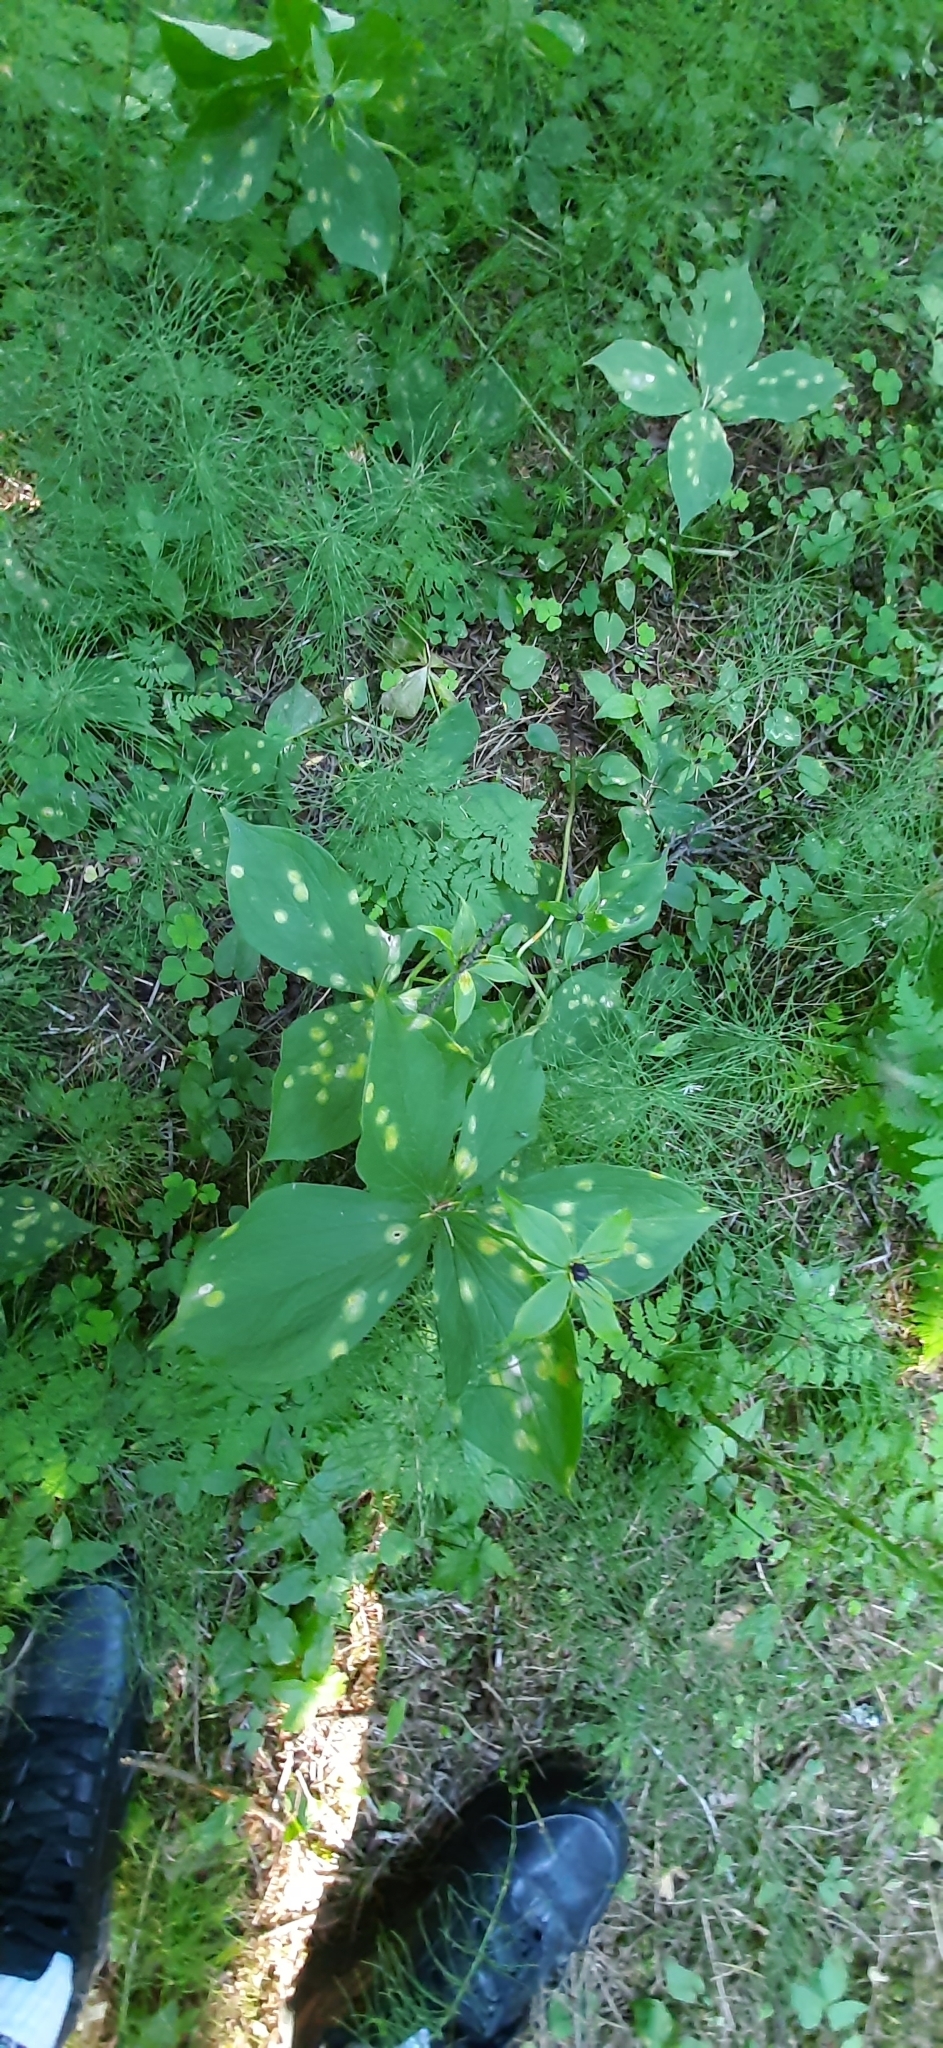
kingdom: Plantae
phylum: Tracheophyta
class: Liliopsida
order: Liliales
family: Melanthiaceae
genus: Paris
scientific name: Paris quadrifolia
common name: Herb-paris
